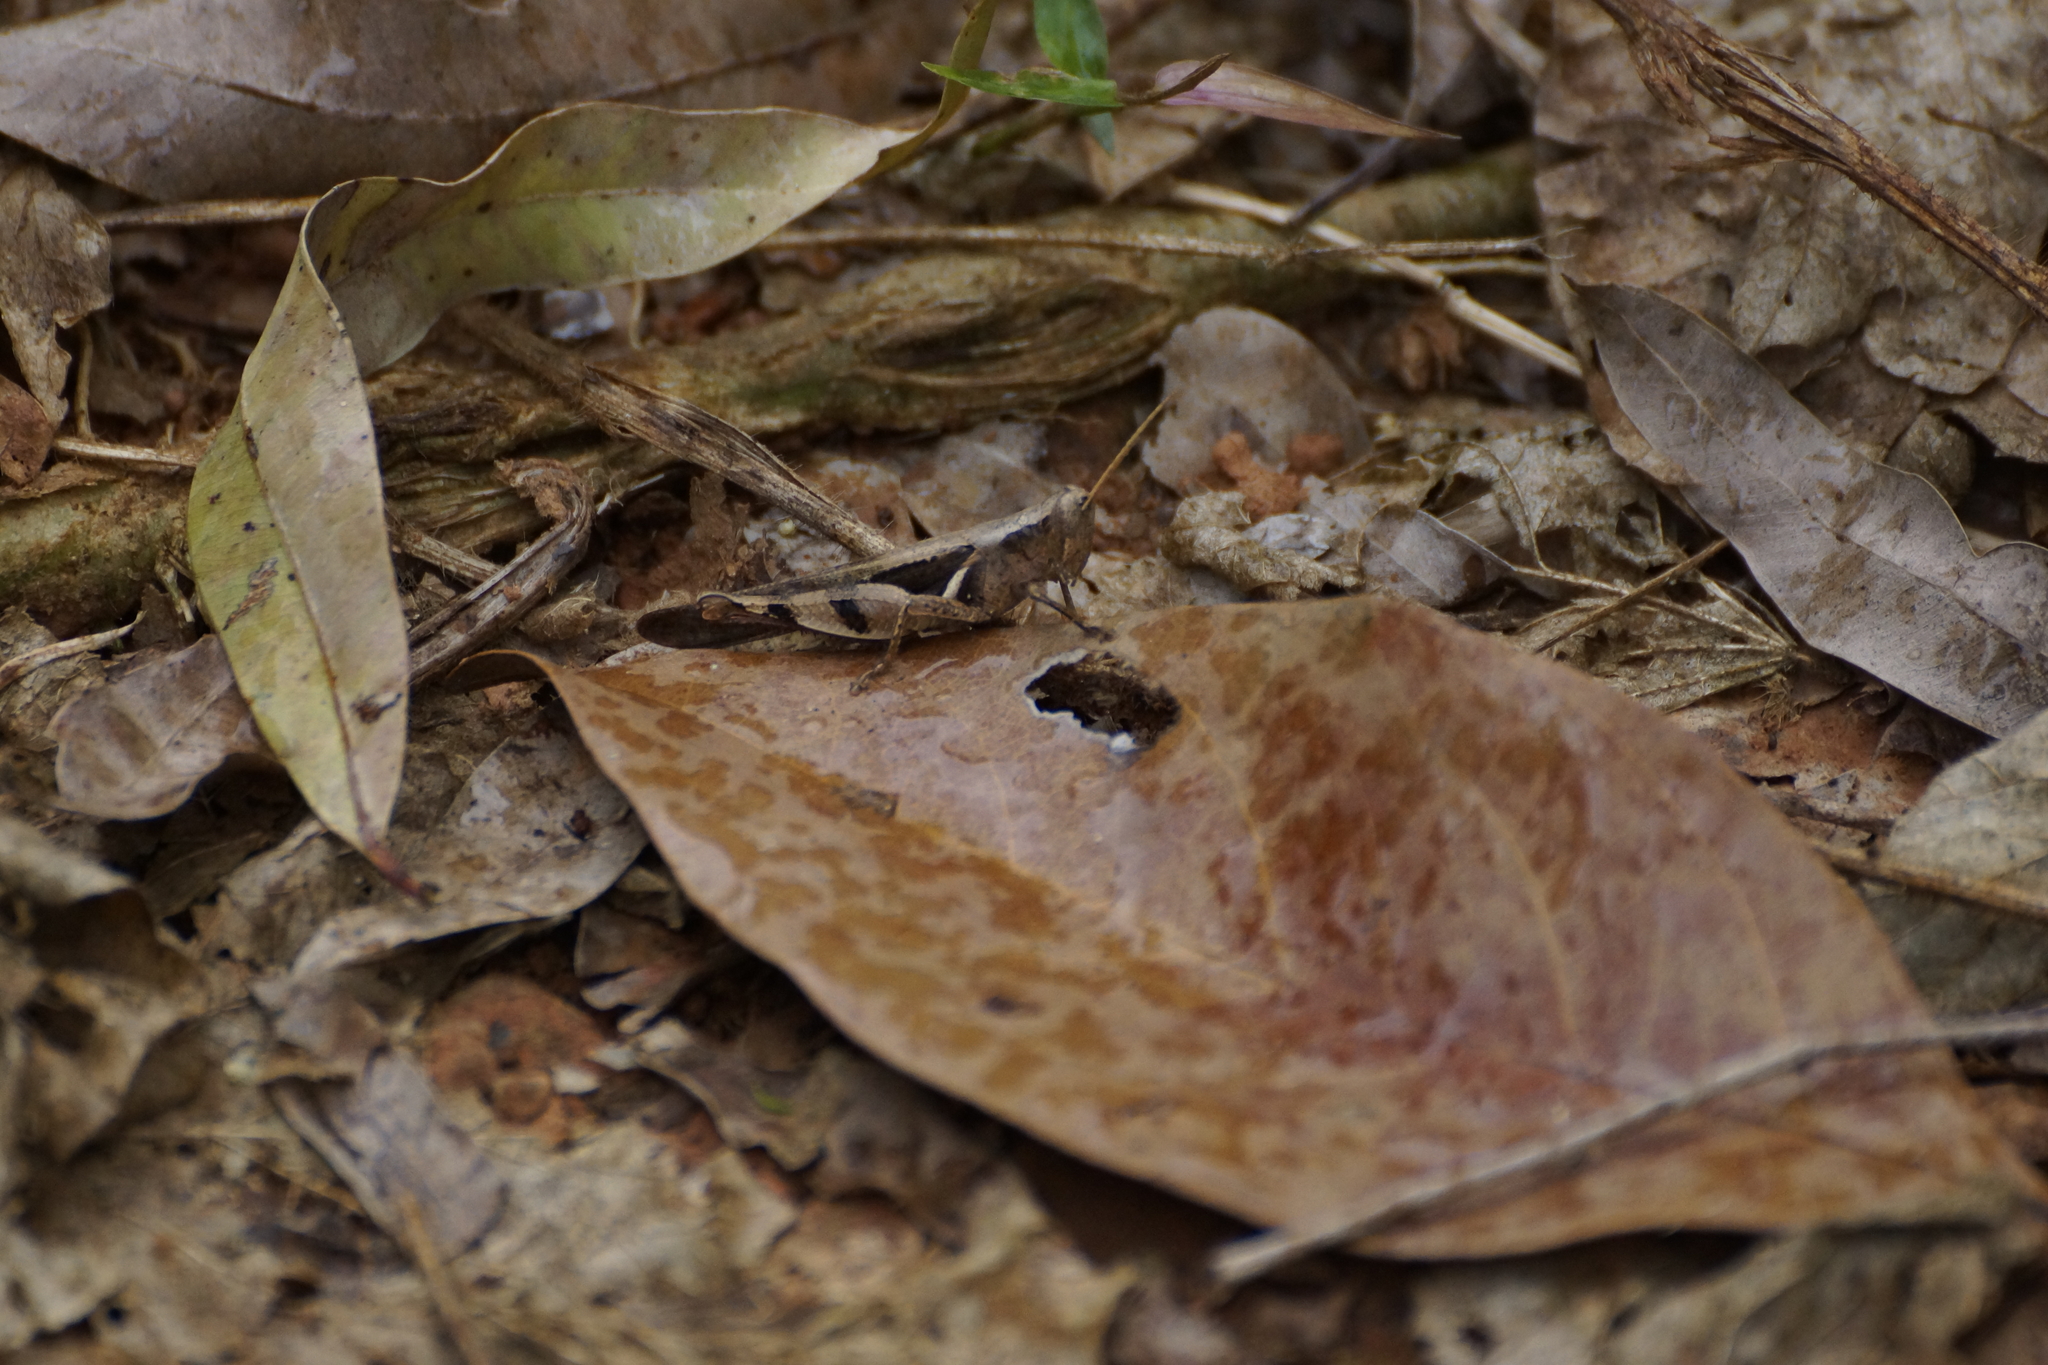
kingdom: Animalia
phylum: Arthropoda
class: Insecta
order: Orthoptera
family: Acrididae
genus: Stenocatantops
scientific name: Stenocatantops angustifrons
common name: Common tropical sharptail
